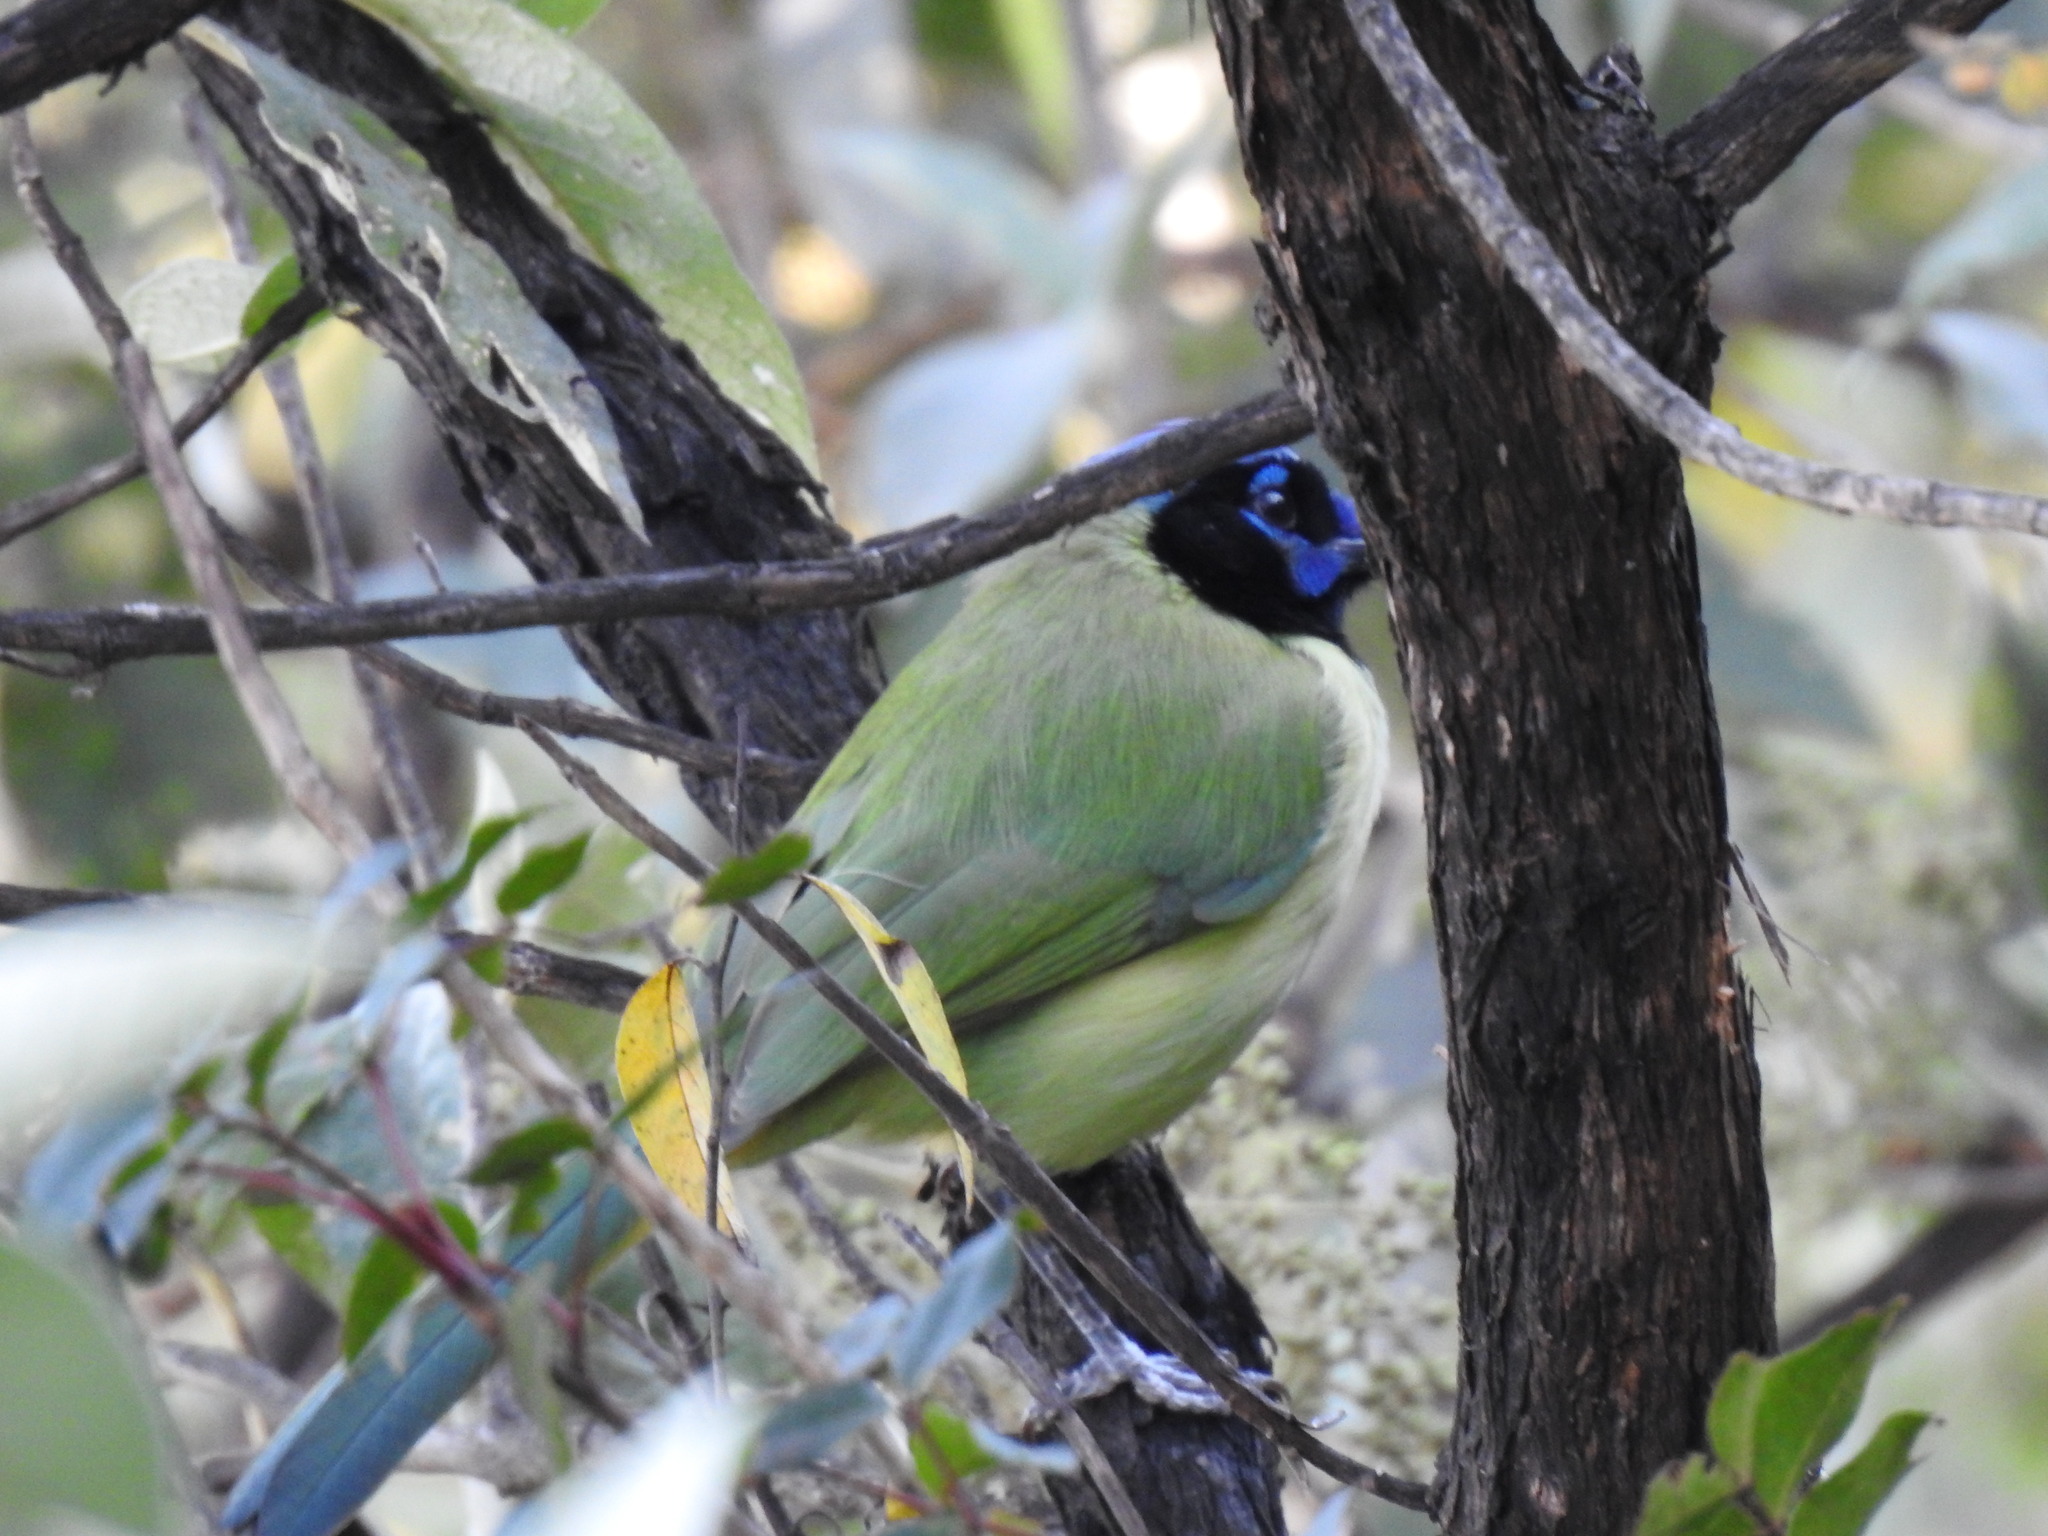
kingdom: Animalia
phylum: Chordata
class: Aves
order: Passeriformes
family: Corvidae
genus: Cyanocorax
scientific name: Cyanocorax yncas
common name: Green jay
